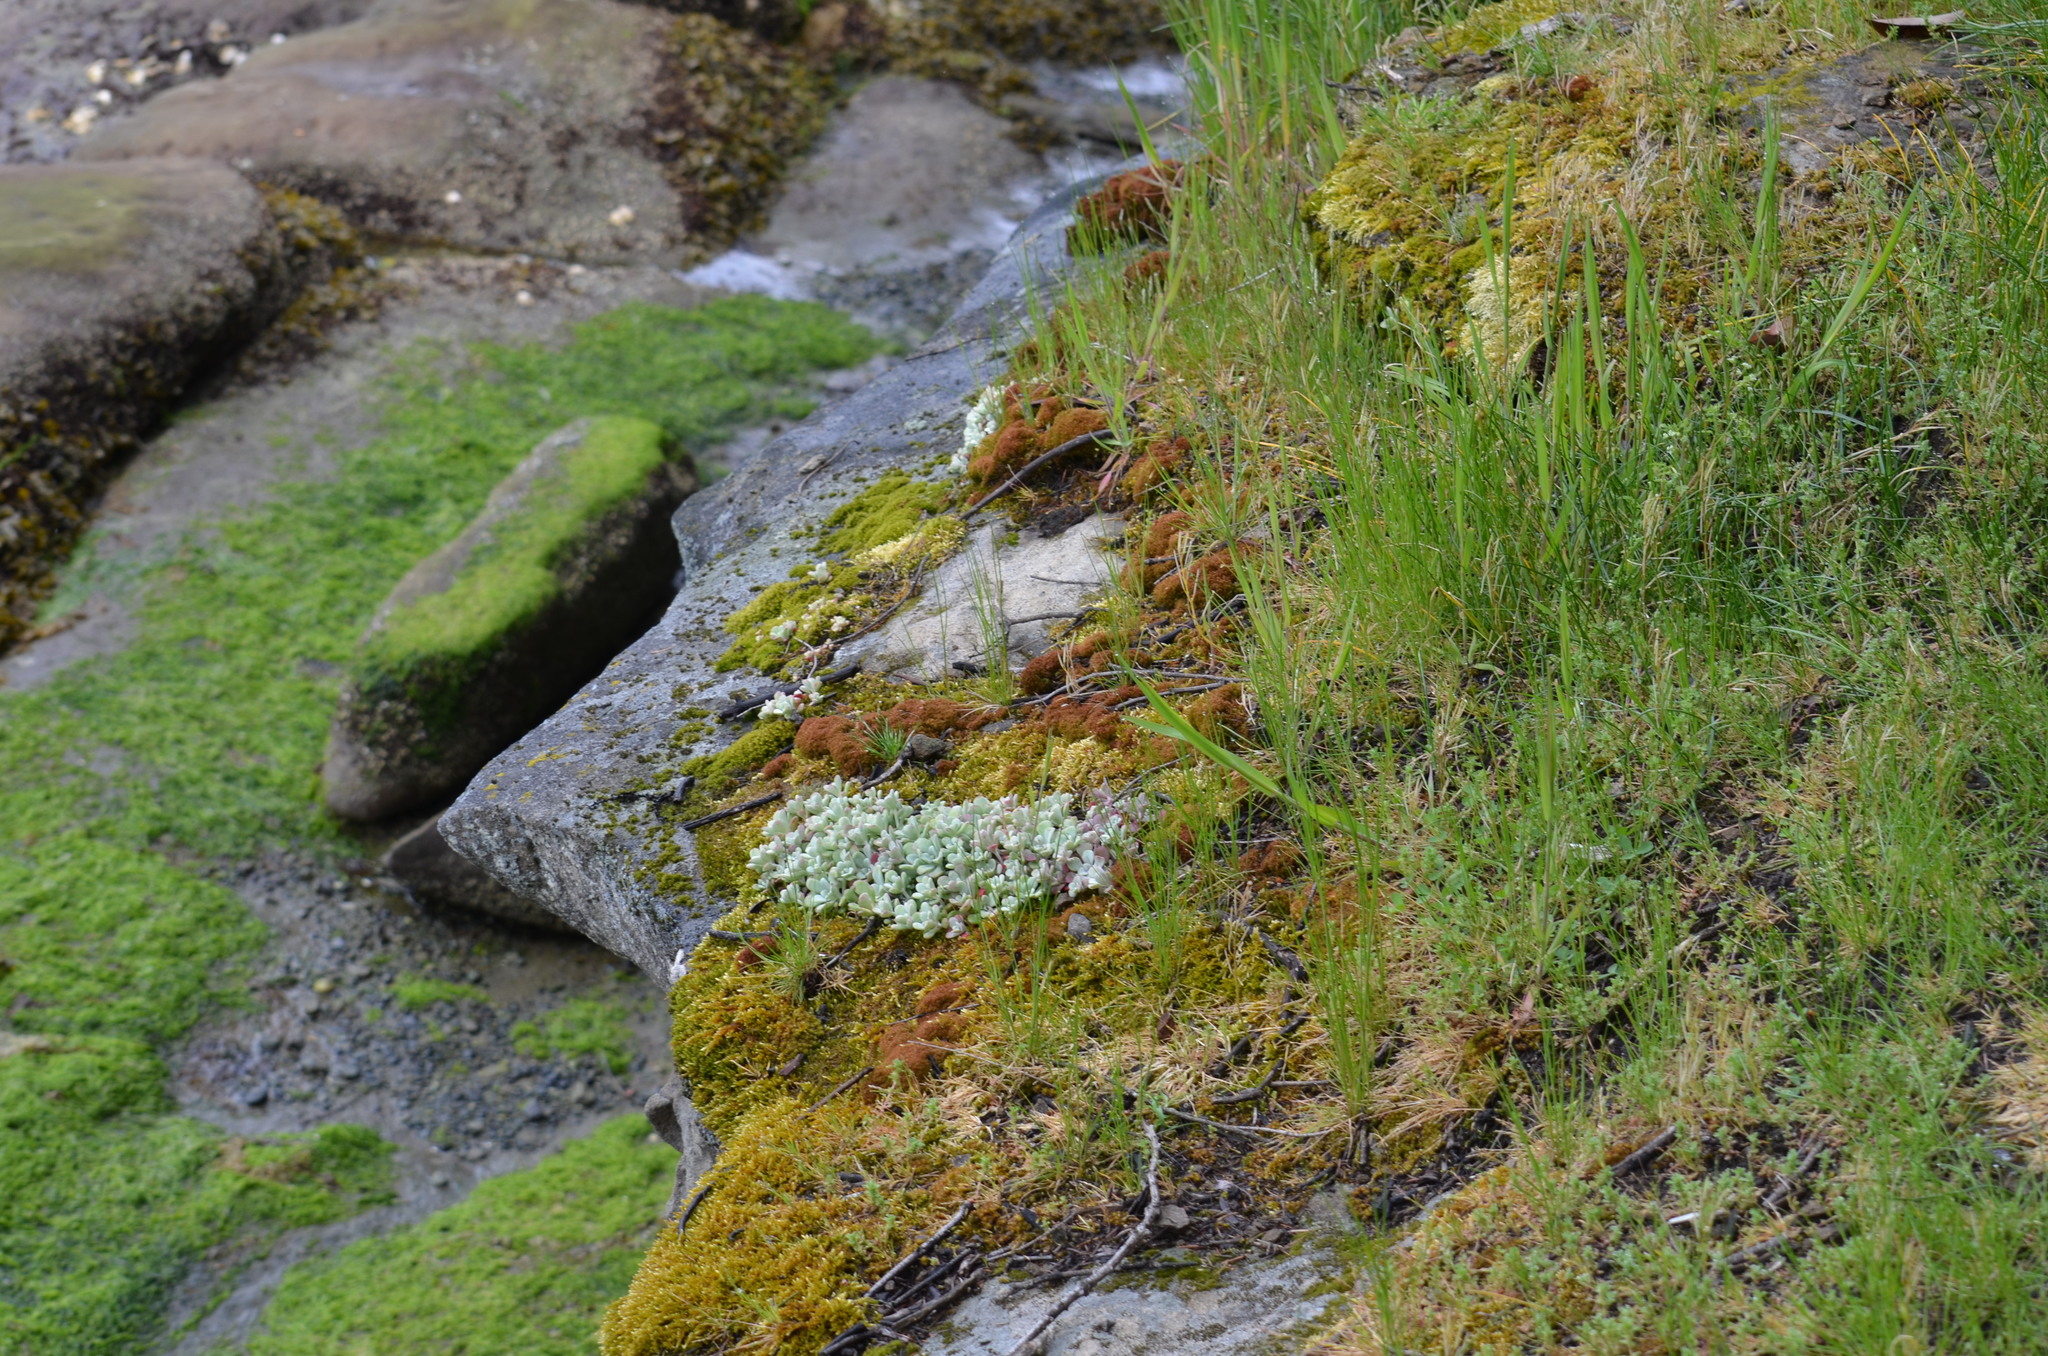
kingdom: Plantae
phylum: Tracheophyta
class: Magnoliopsida
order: Saxifragales
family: Crassulaceae
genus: Sedum
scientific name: Sedum spathulifolium
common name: Colorado stonecrop
